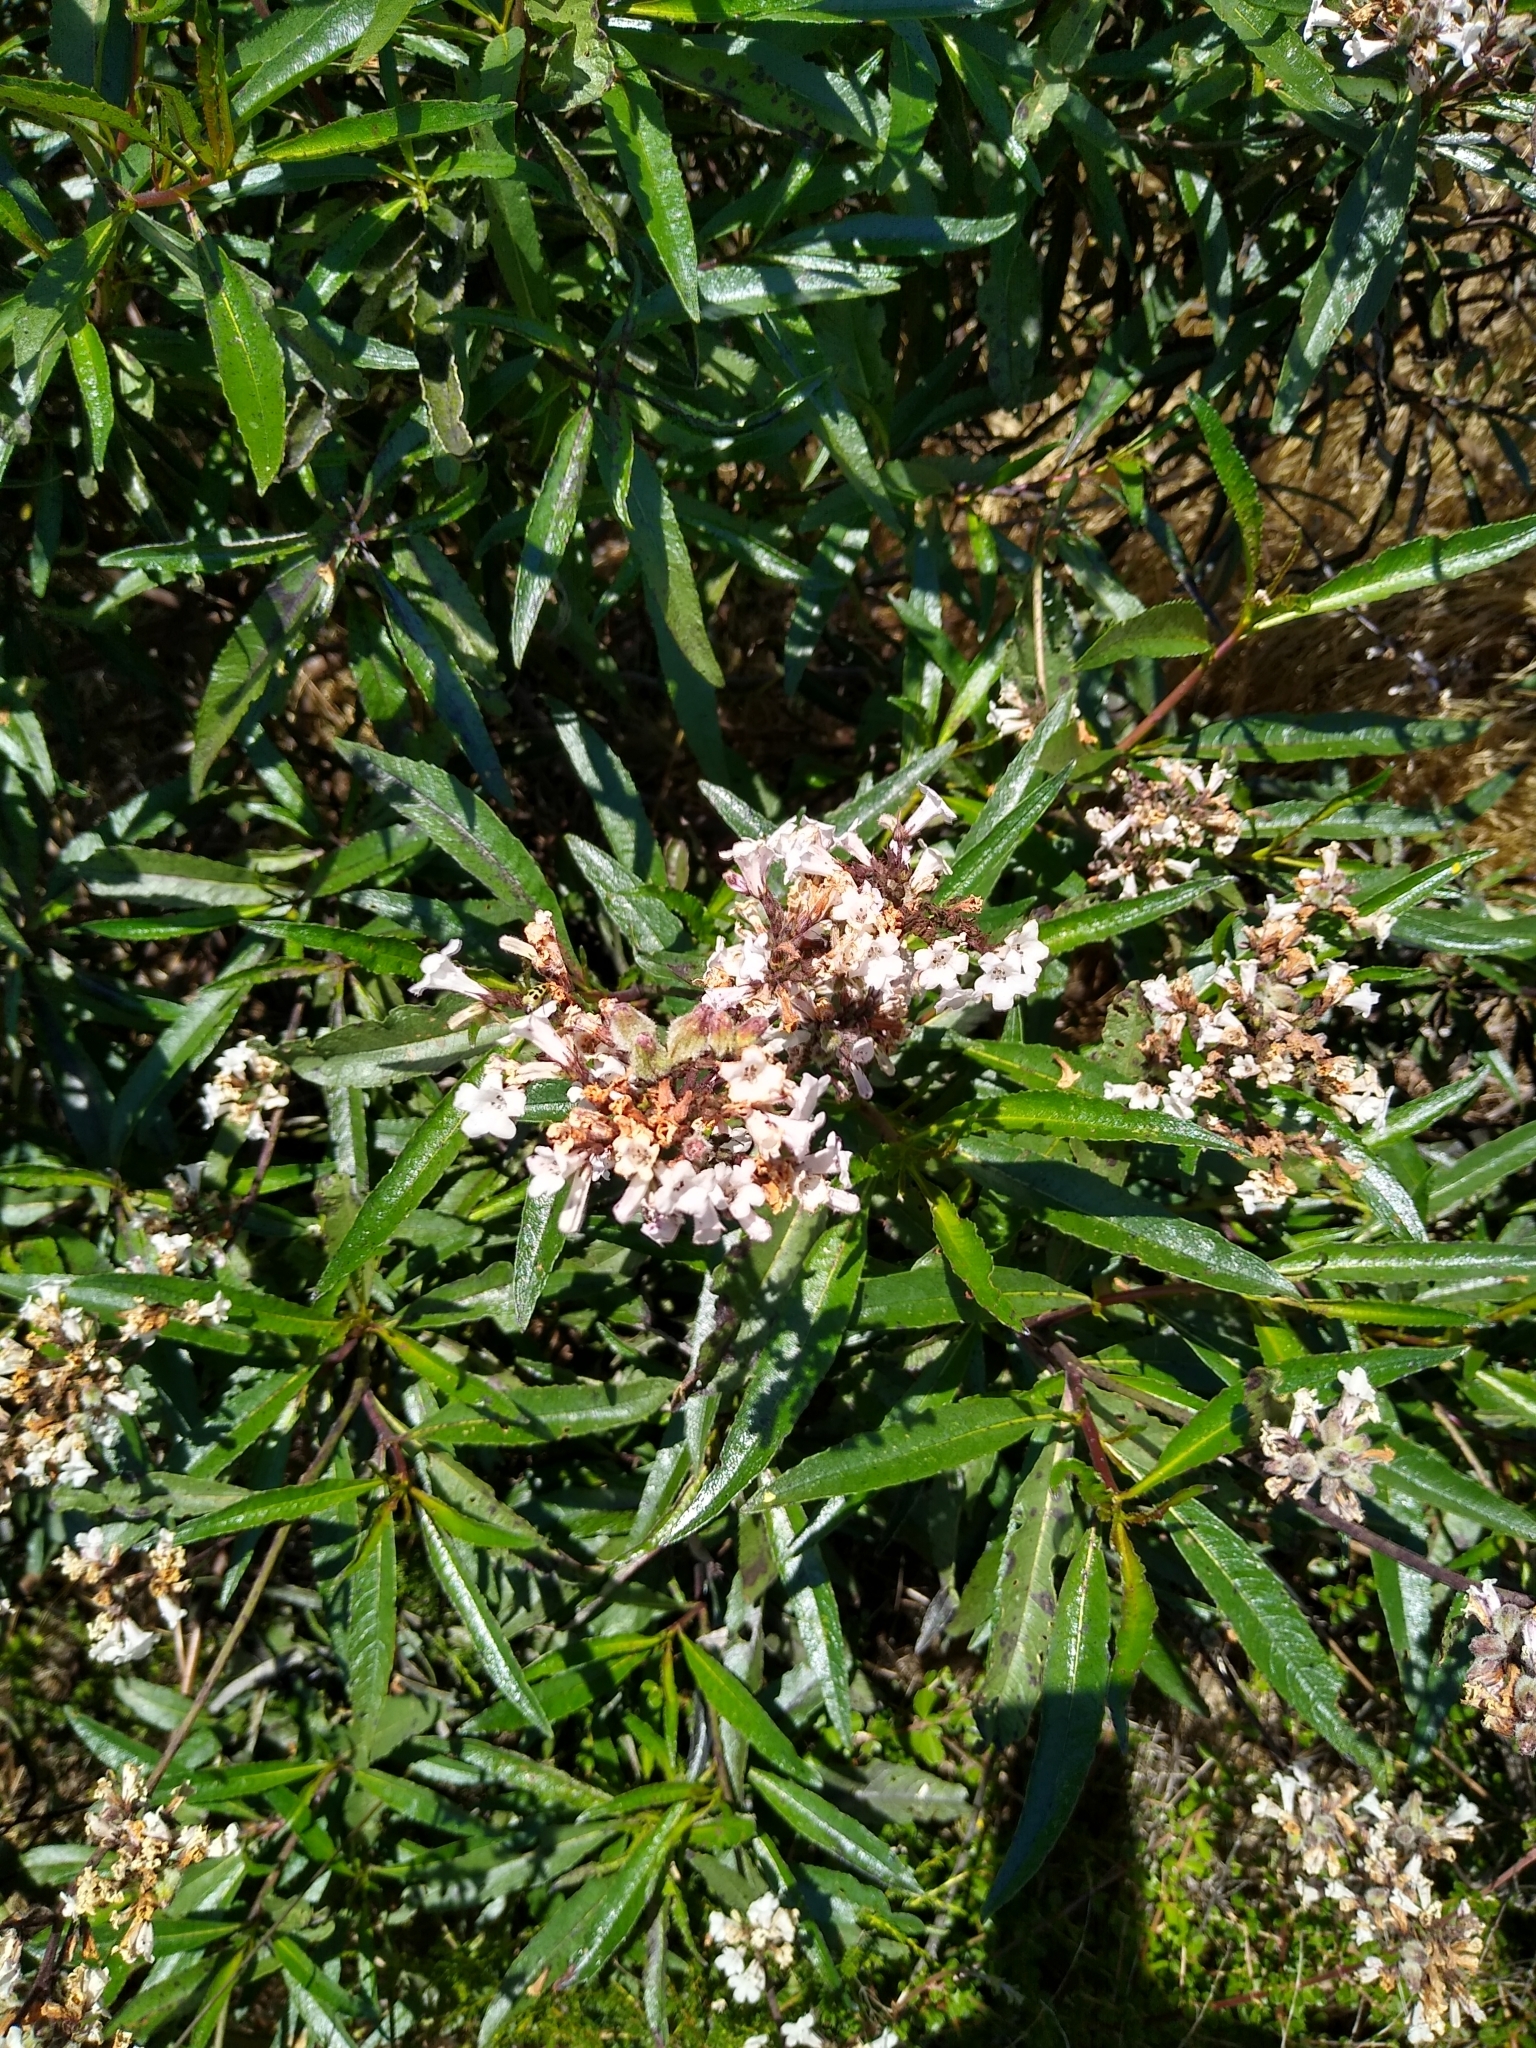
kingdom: Plantae
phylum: Tracheophyta
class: Magnoliopsida
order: Boraginales
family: Namaceae
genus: Eriodictyon
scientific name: Eriodictyon californicum
